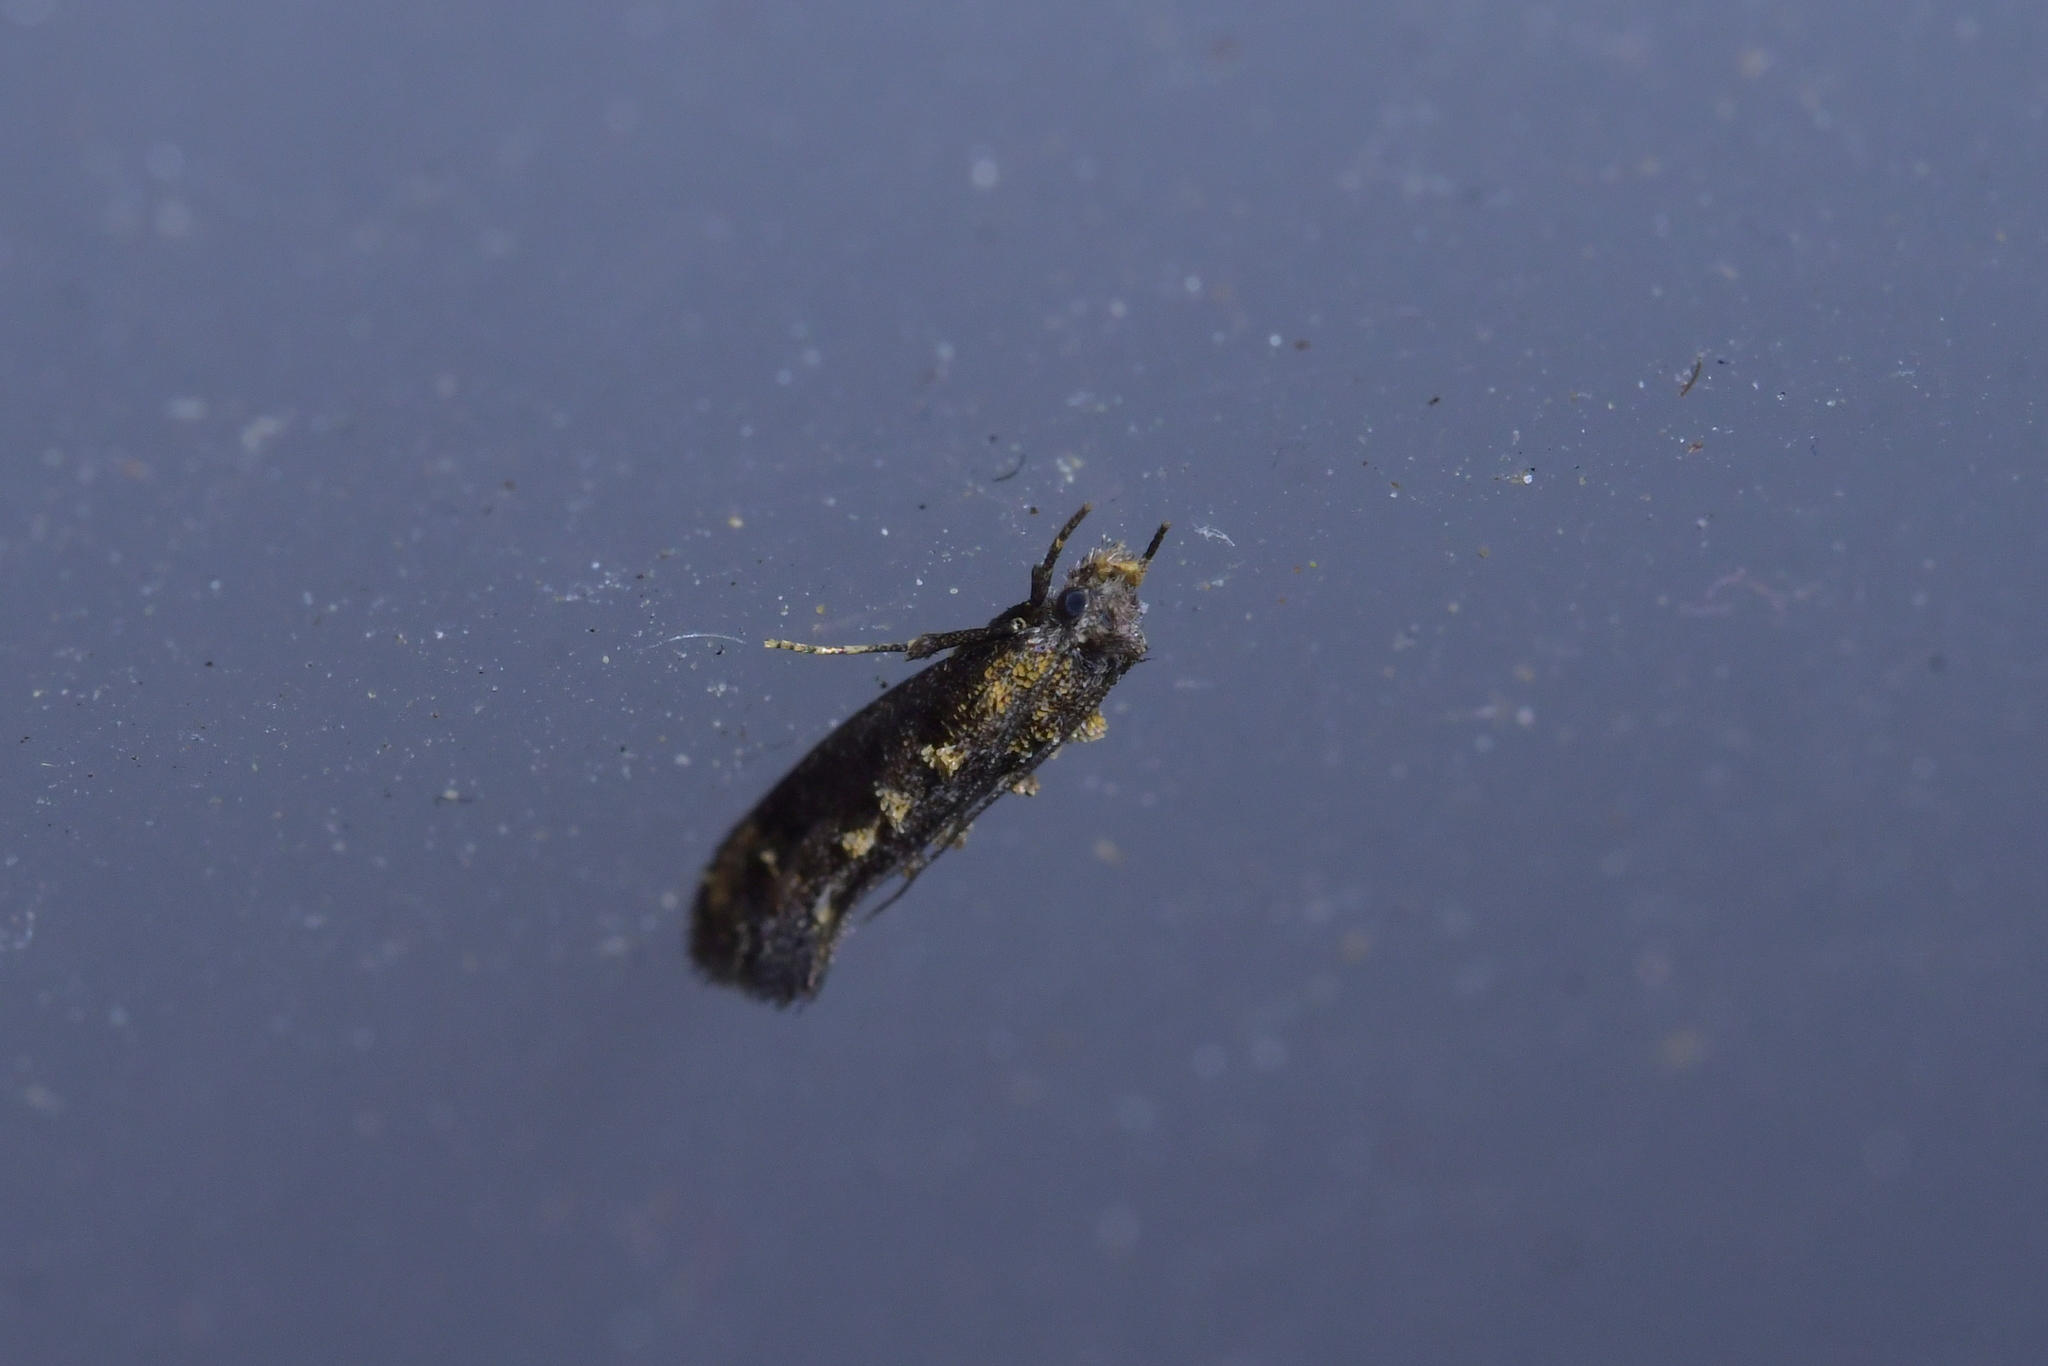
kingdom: Animalia
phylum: Arthropoda
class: Insecta
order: Lepidoptera
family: Tineidae
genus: Trithamnora
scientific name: Trithamnora certella
